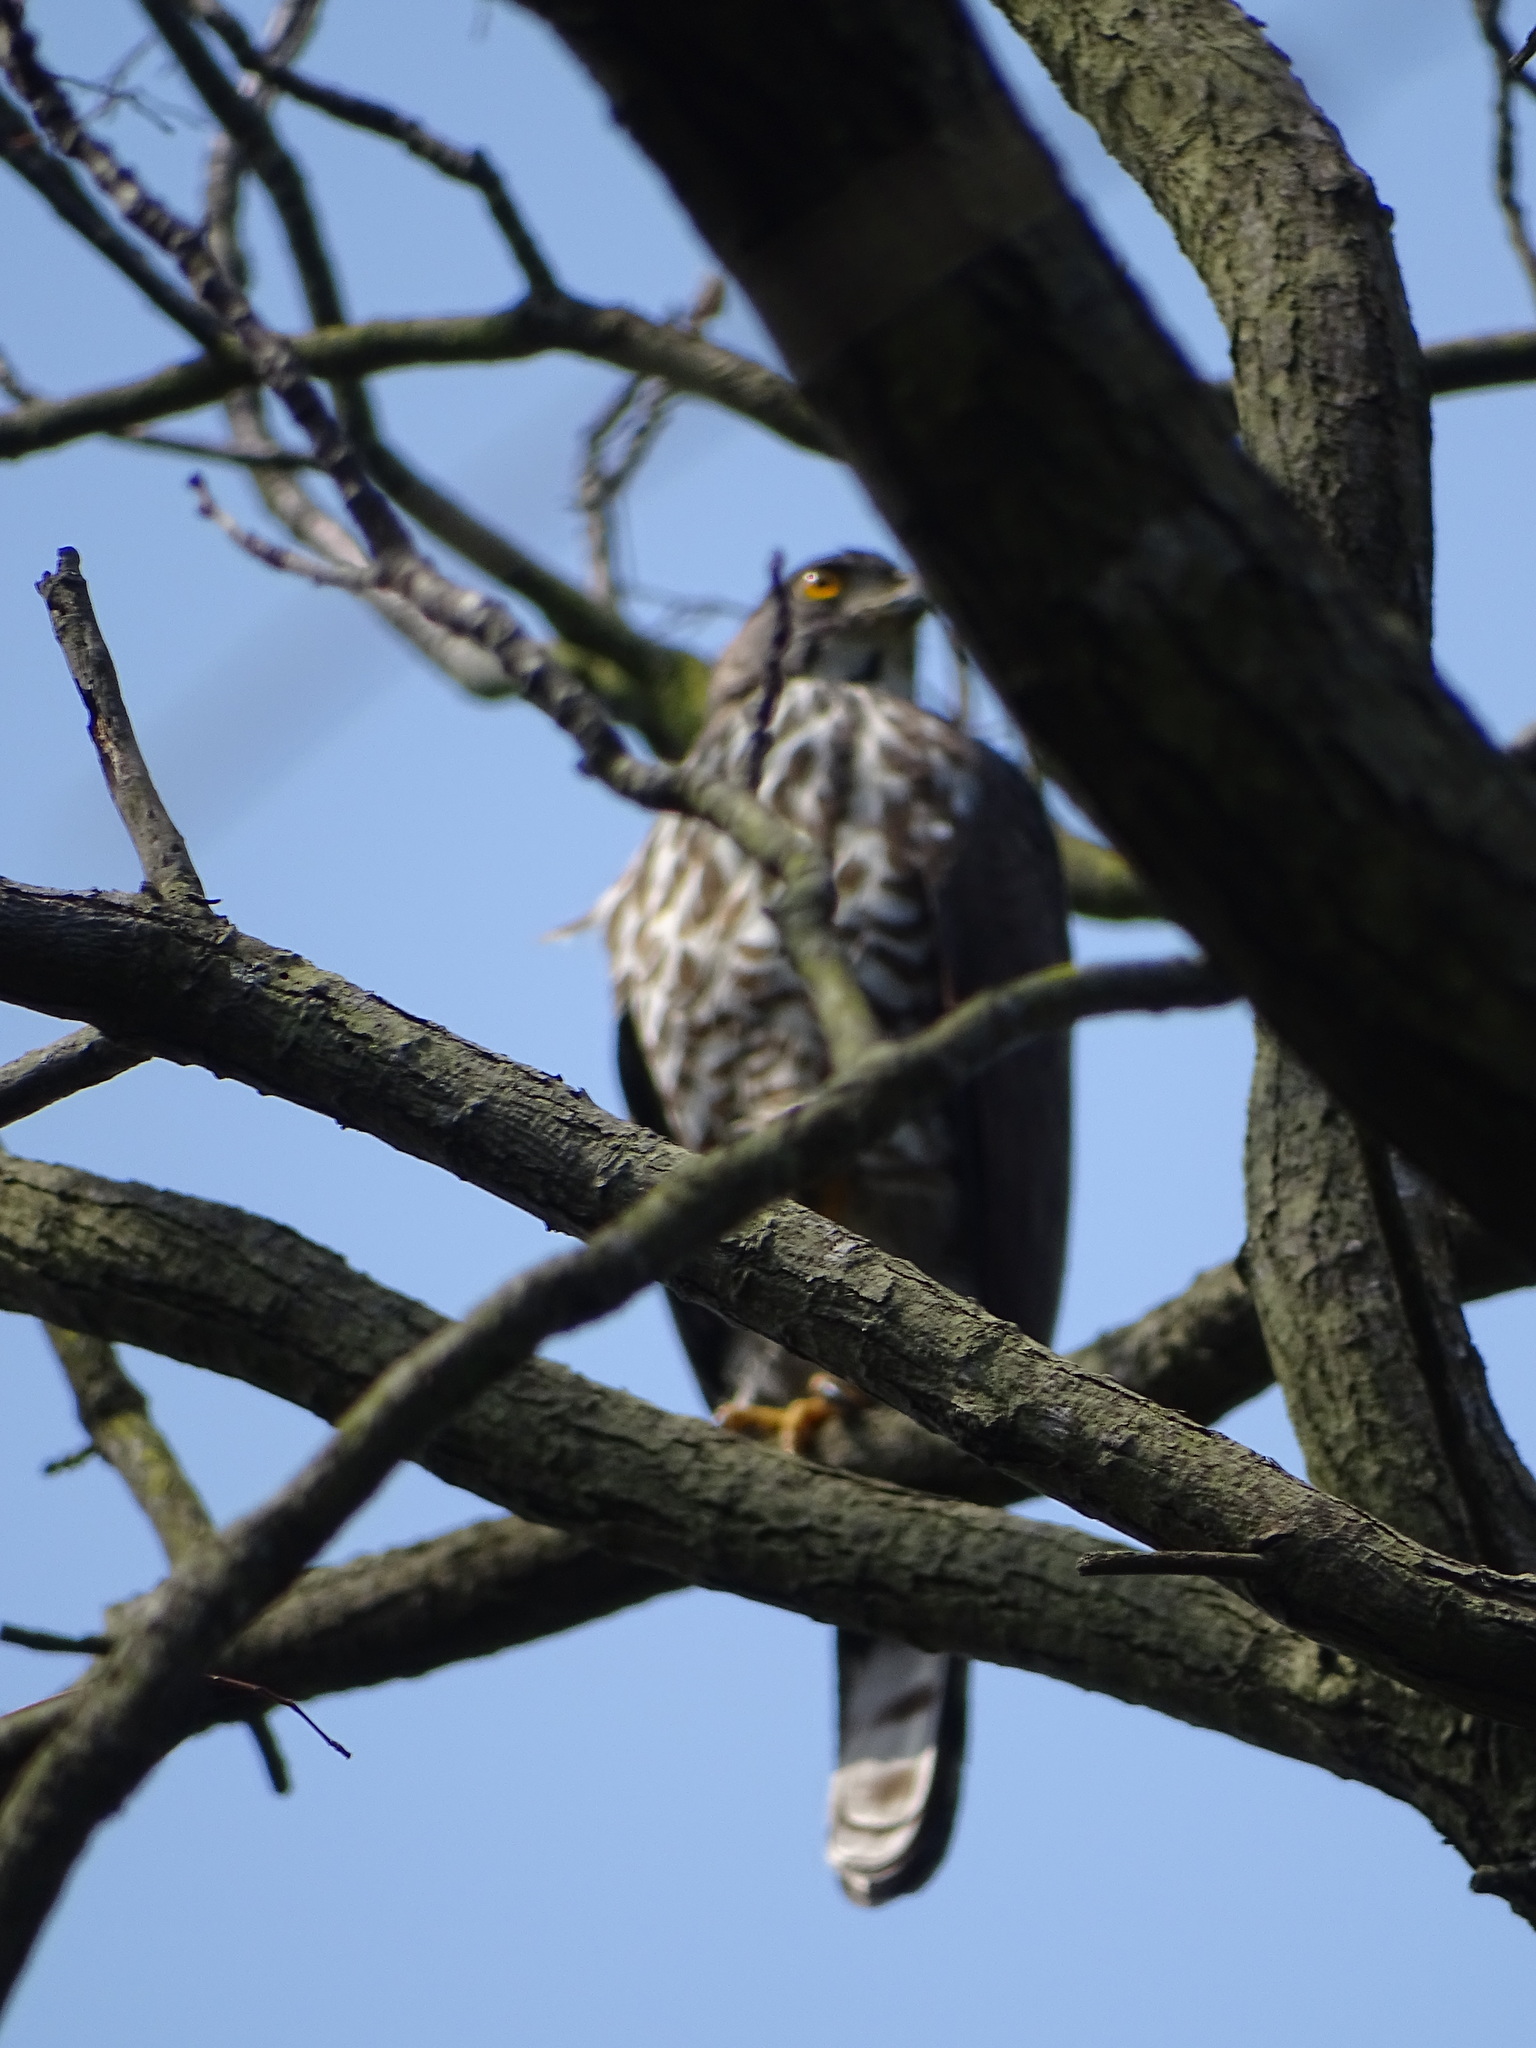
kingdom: Animalia
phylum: Chordata
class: Aves
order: Accipitriformes
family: Accipitridae
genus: Accipiter
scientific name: Accipiter trivirgatus
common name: Crested goshawk
